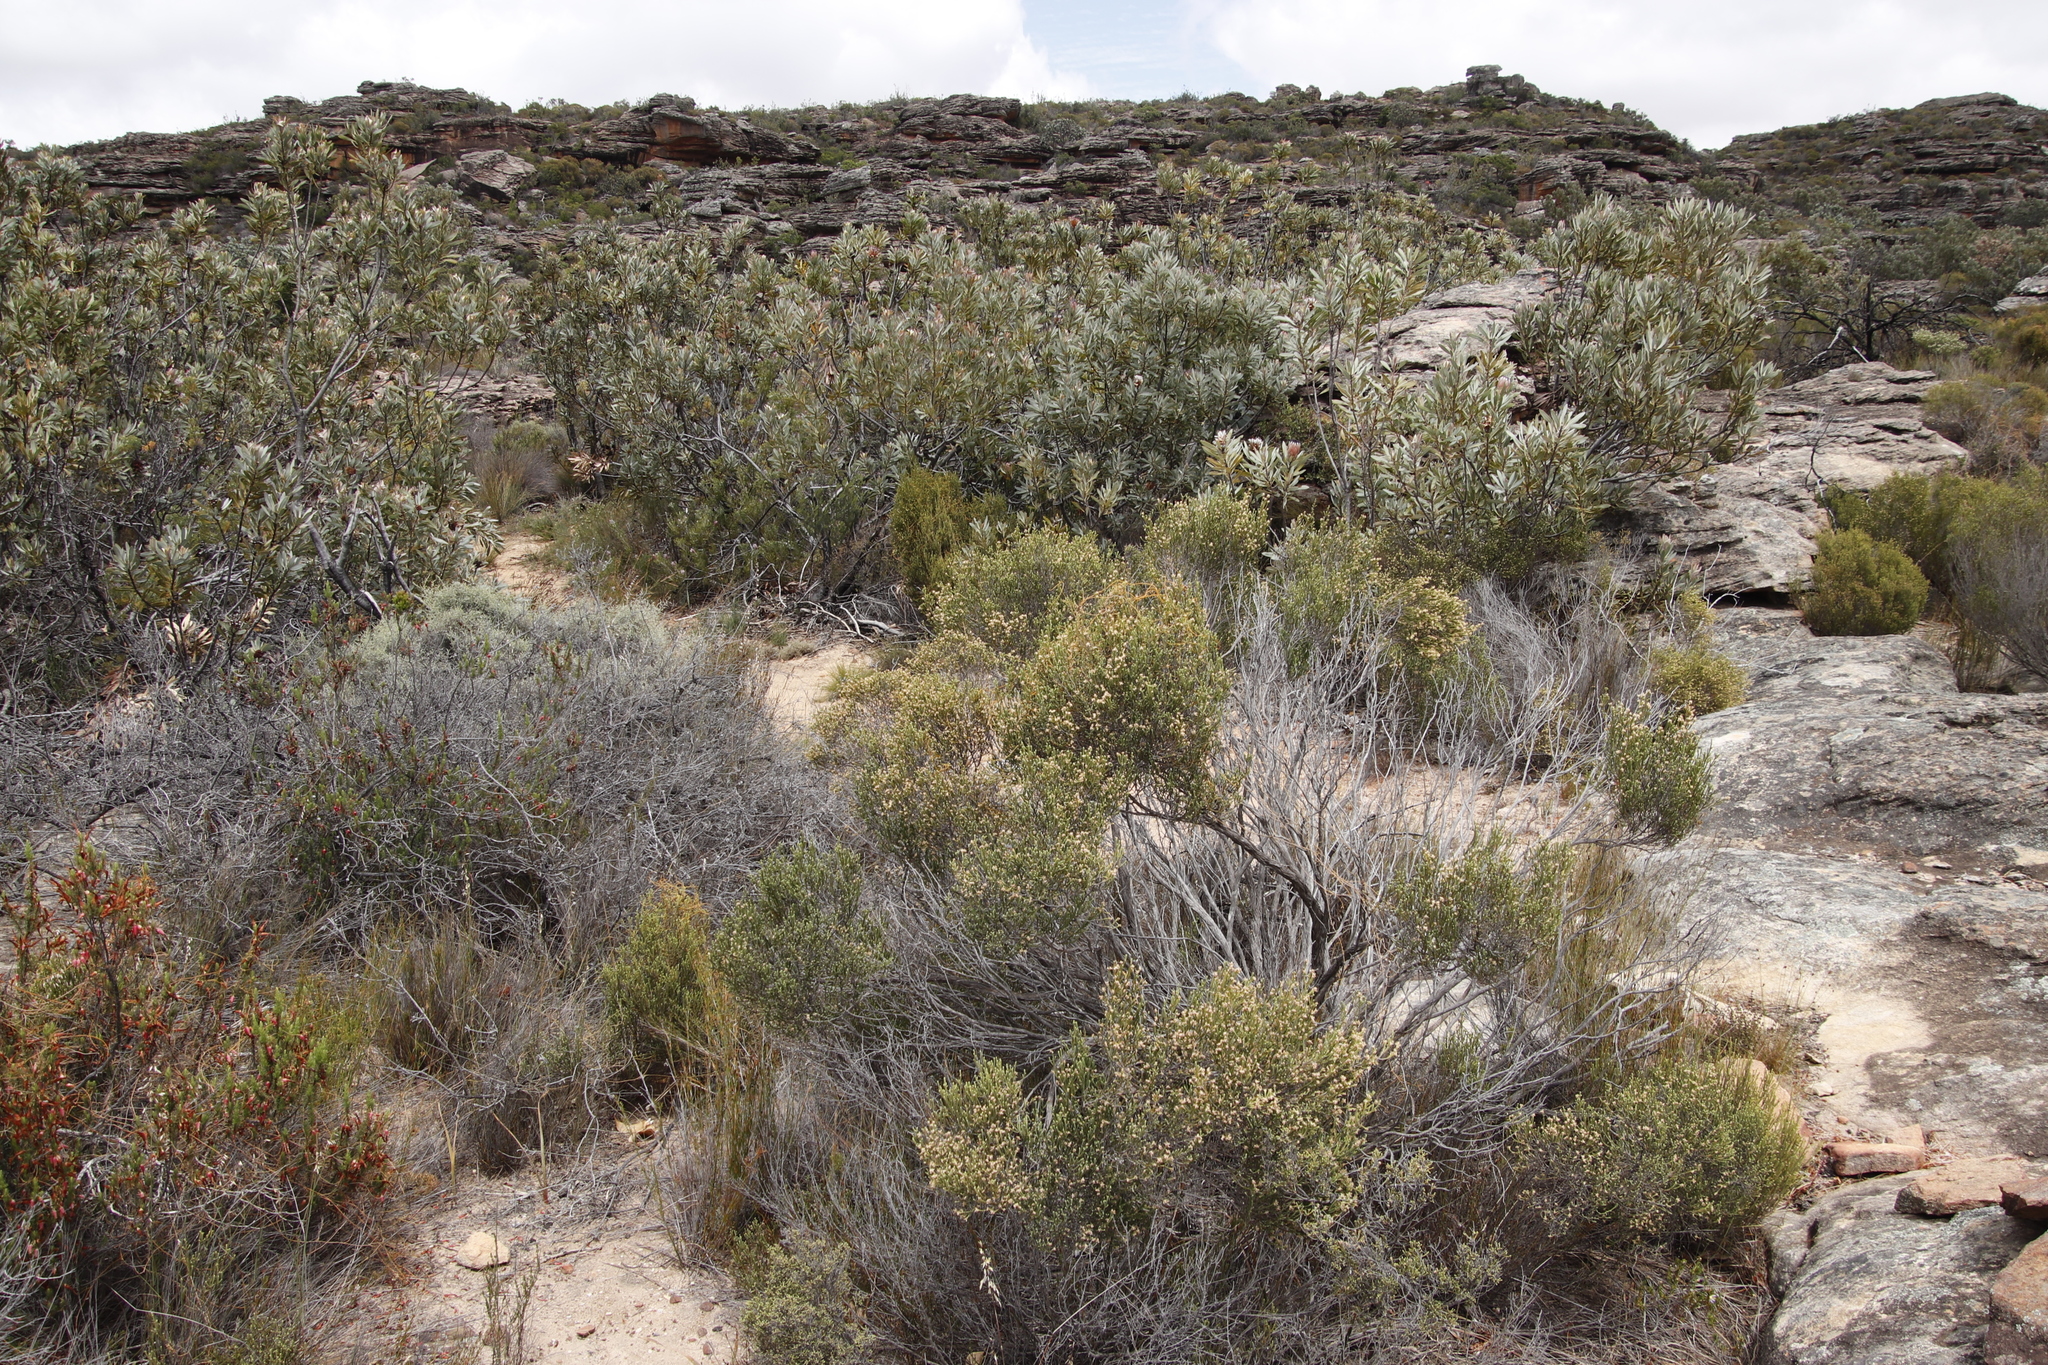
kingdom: Plantae
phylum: Tracheophyta
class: Magnoliopsida
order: Proteales
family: Proteaceae
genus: Protea
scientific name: Protea laurifolia
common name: Grey-leaf sugarbsh
